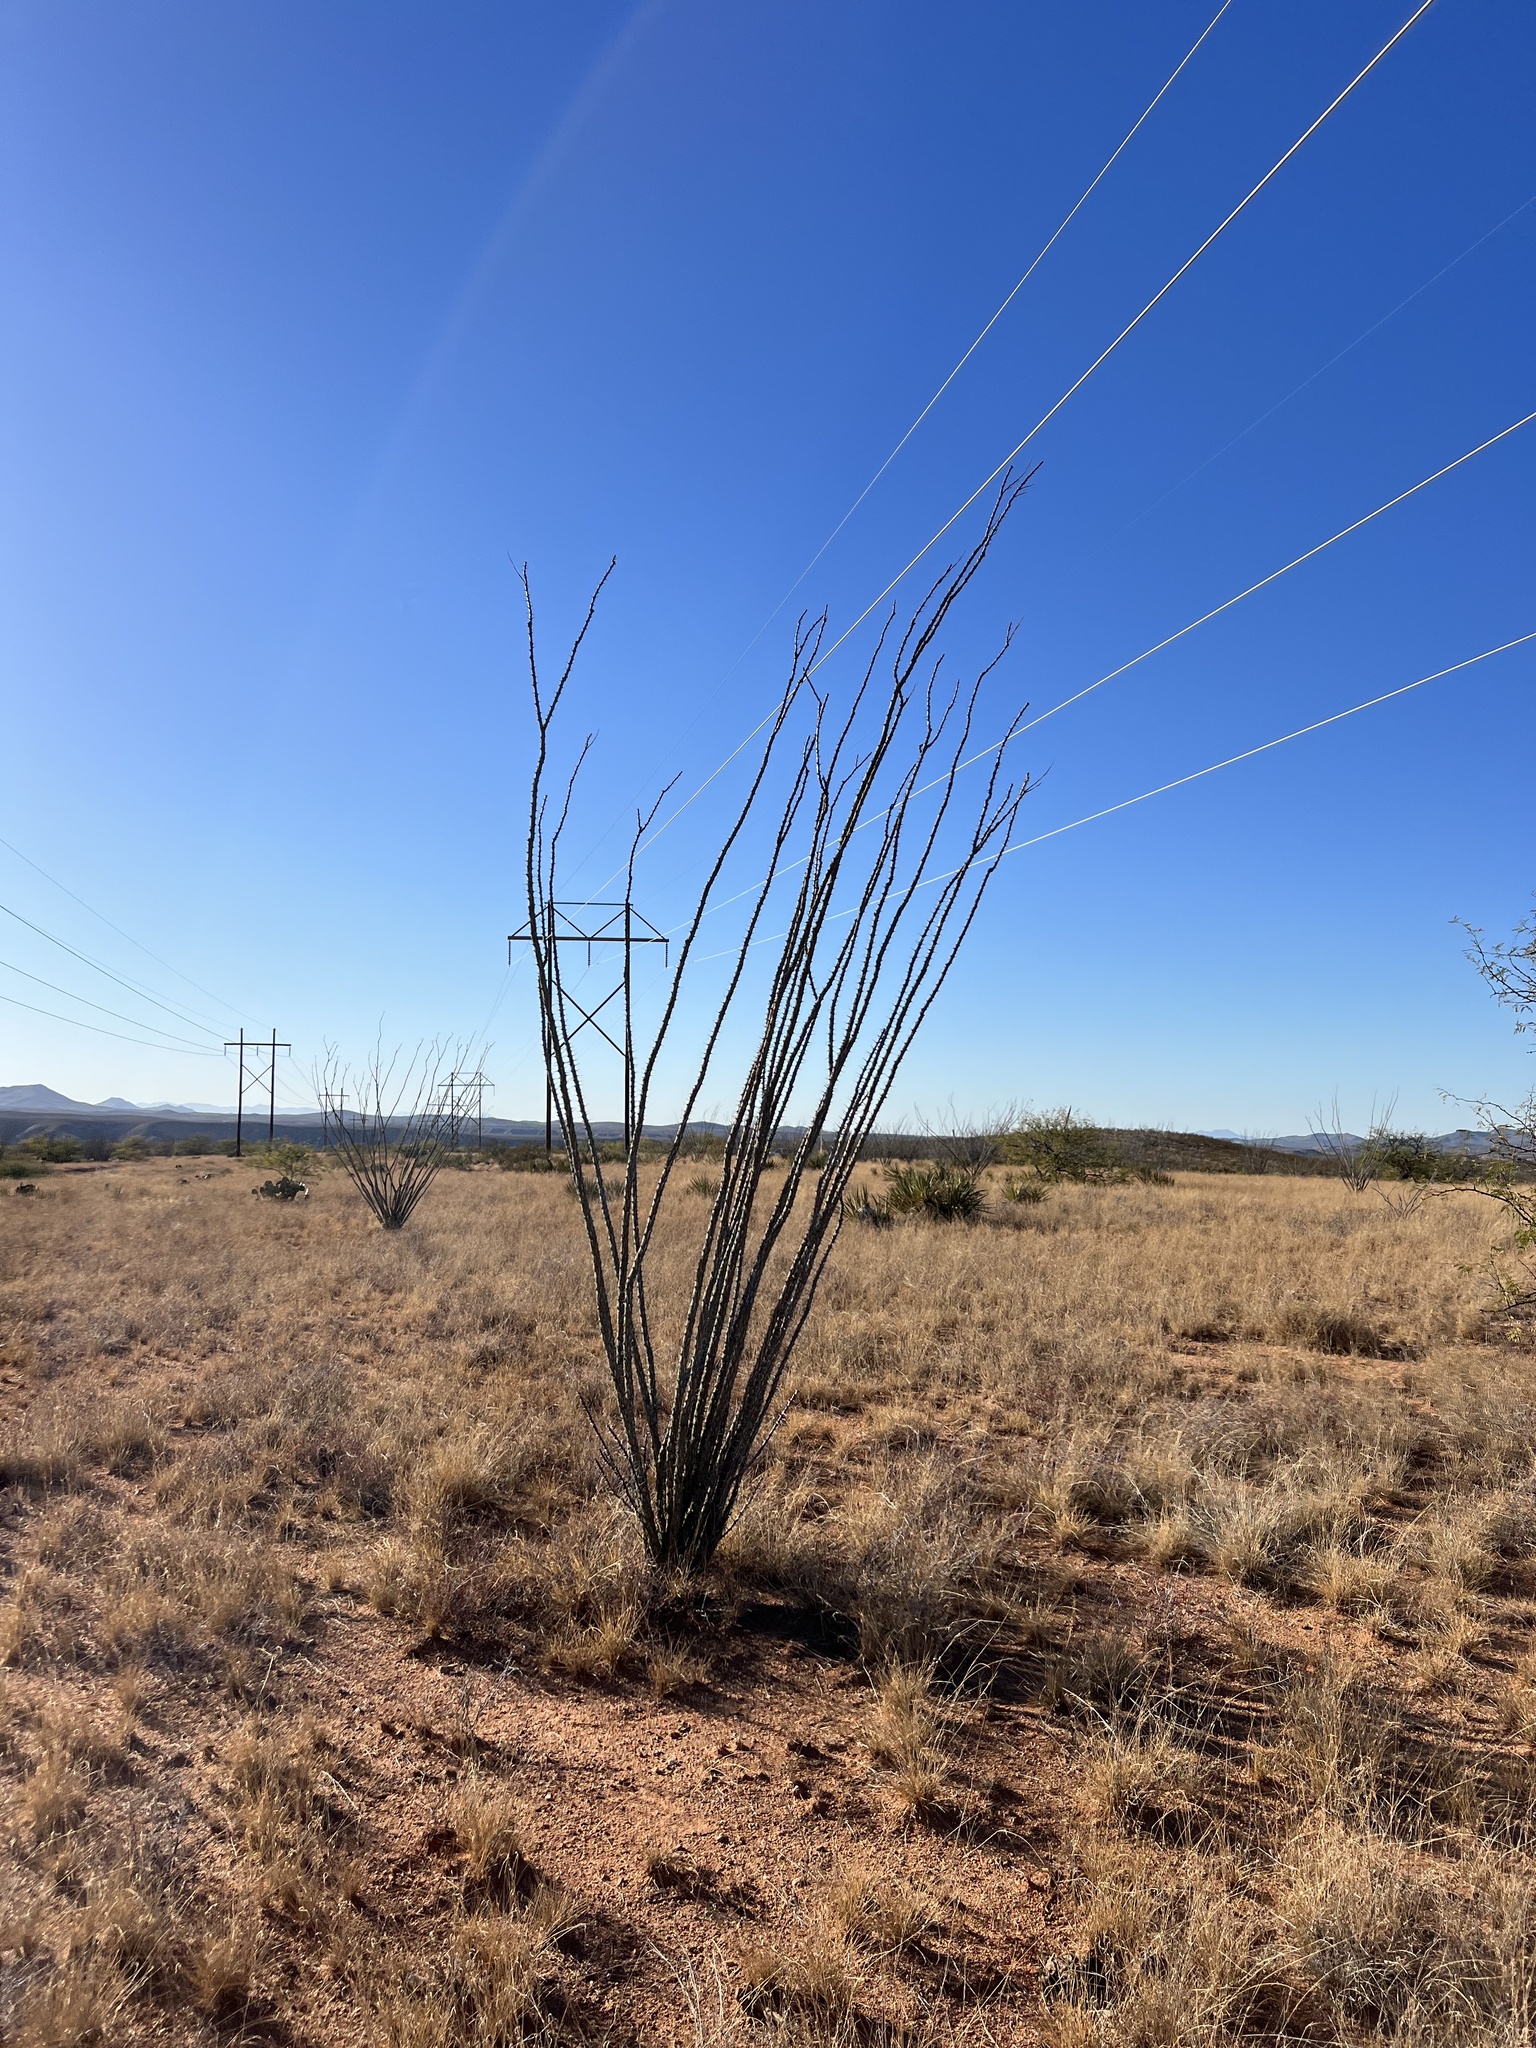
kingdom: Plantae
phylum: Tracheophyta
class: Magnoliopsida
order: Ericales
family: Fouquieriaceae
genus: Fouquieria
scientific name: Fouquieria splendens
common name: Vine-cactus
